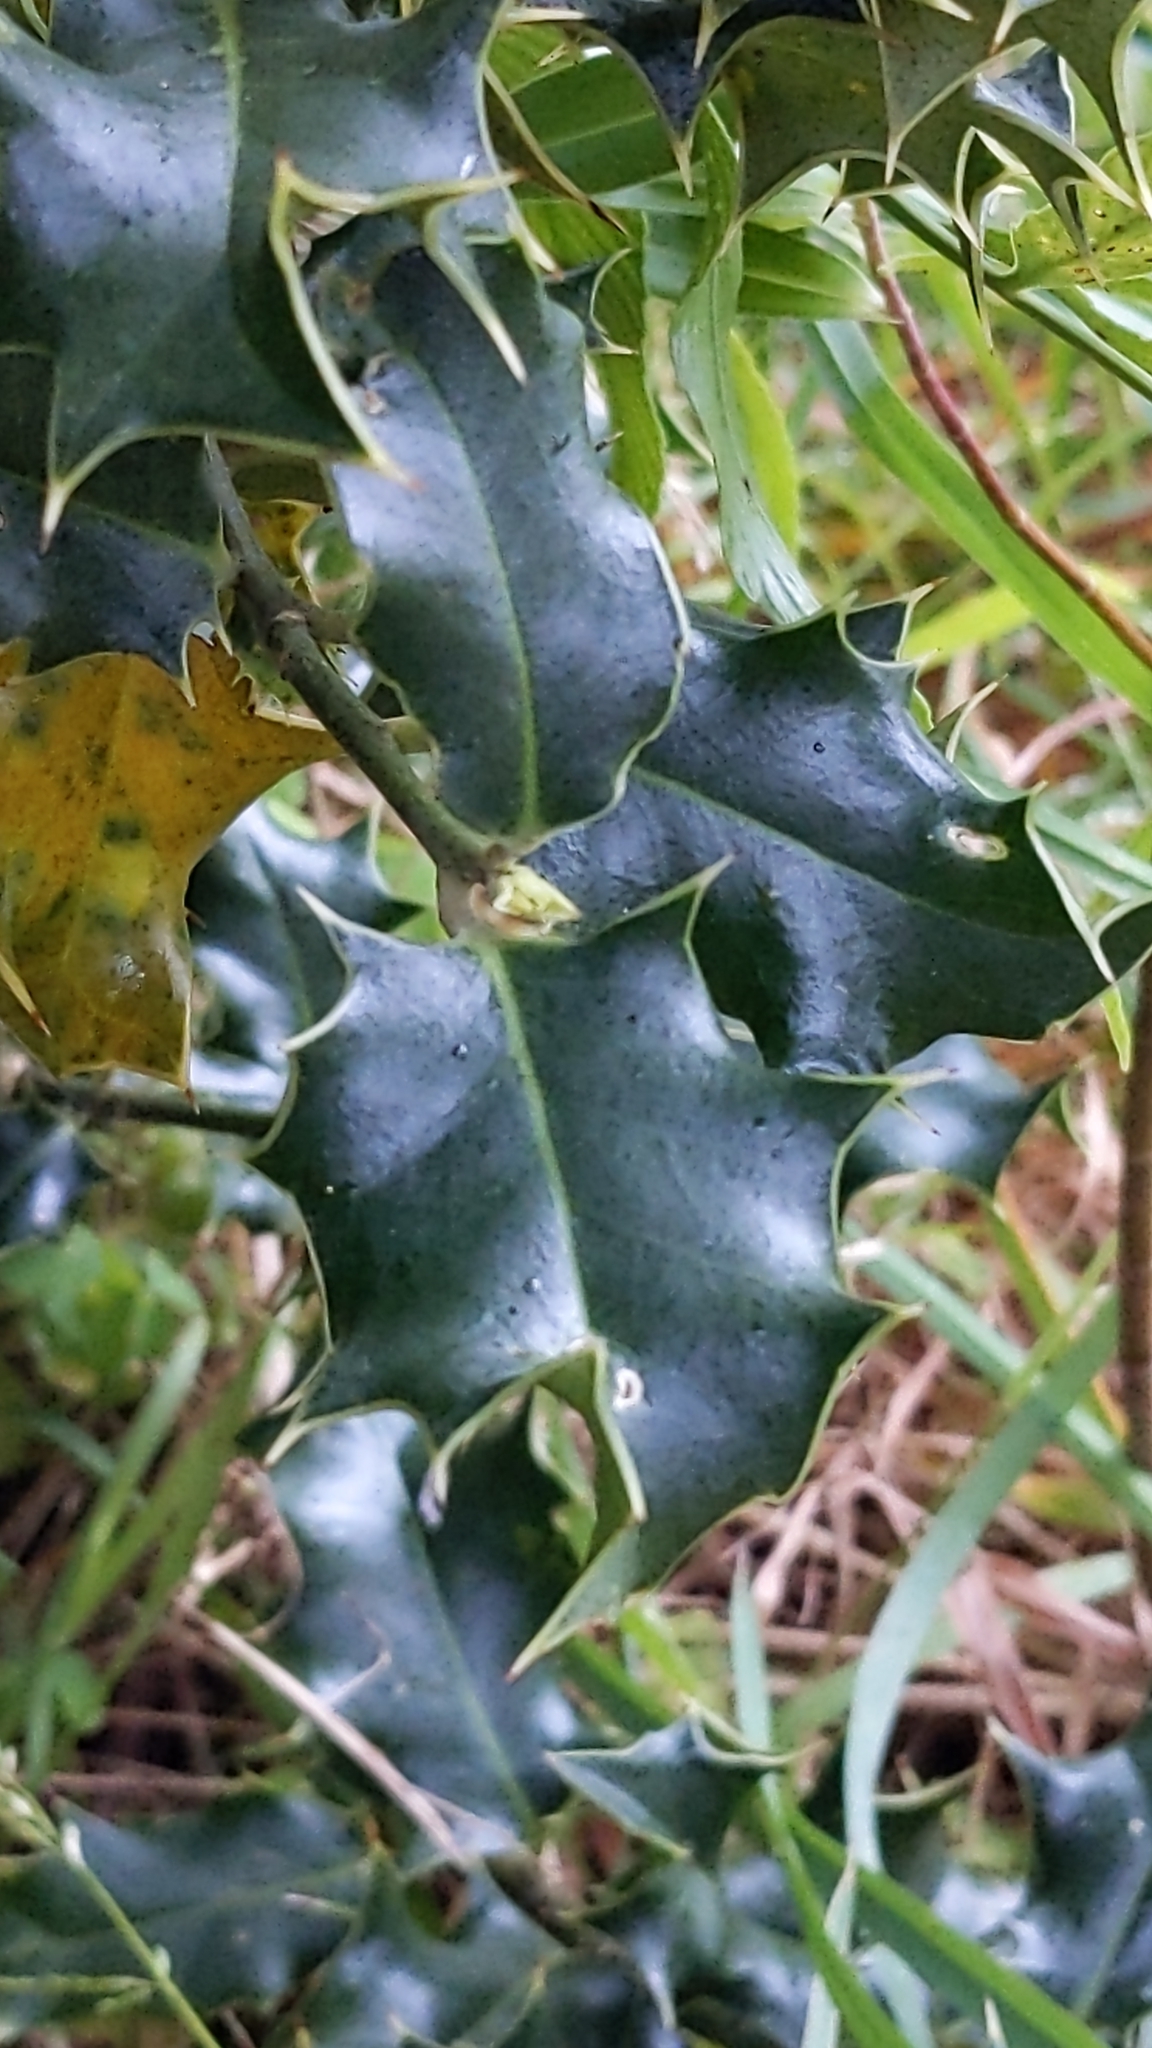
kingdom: Plantae
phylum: Tracheophyta
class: Magnoliopsida
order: Aquifoliales
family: Aquifoliaceae
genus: Ilex
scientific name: Ilex aquifolium
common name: English holly
